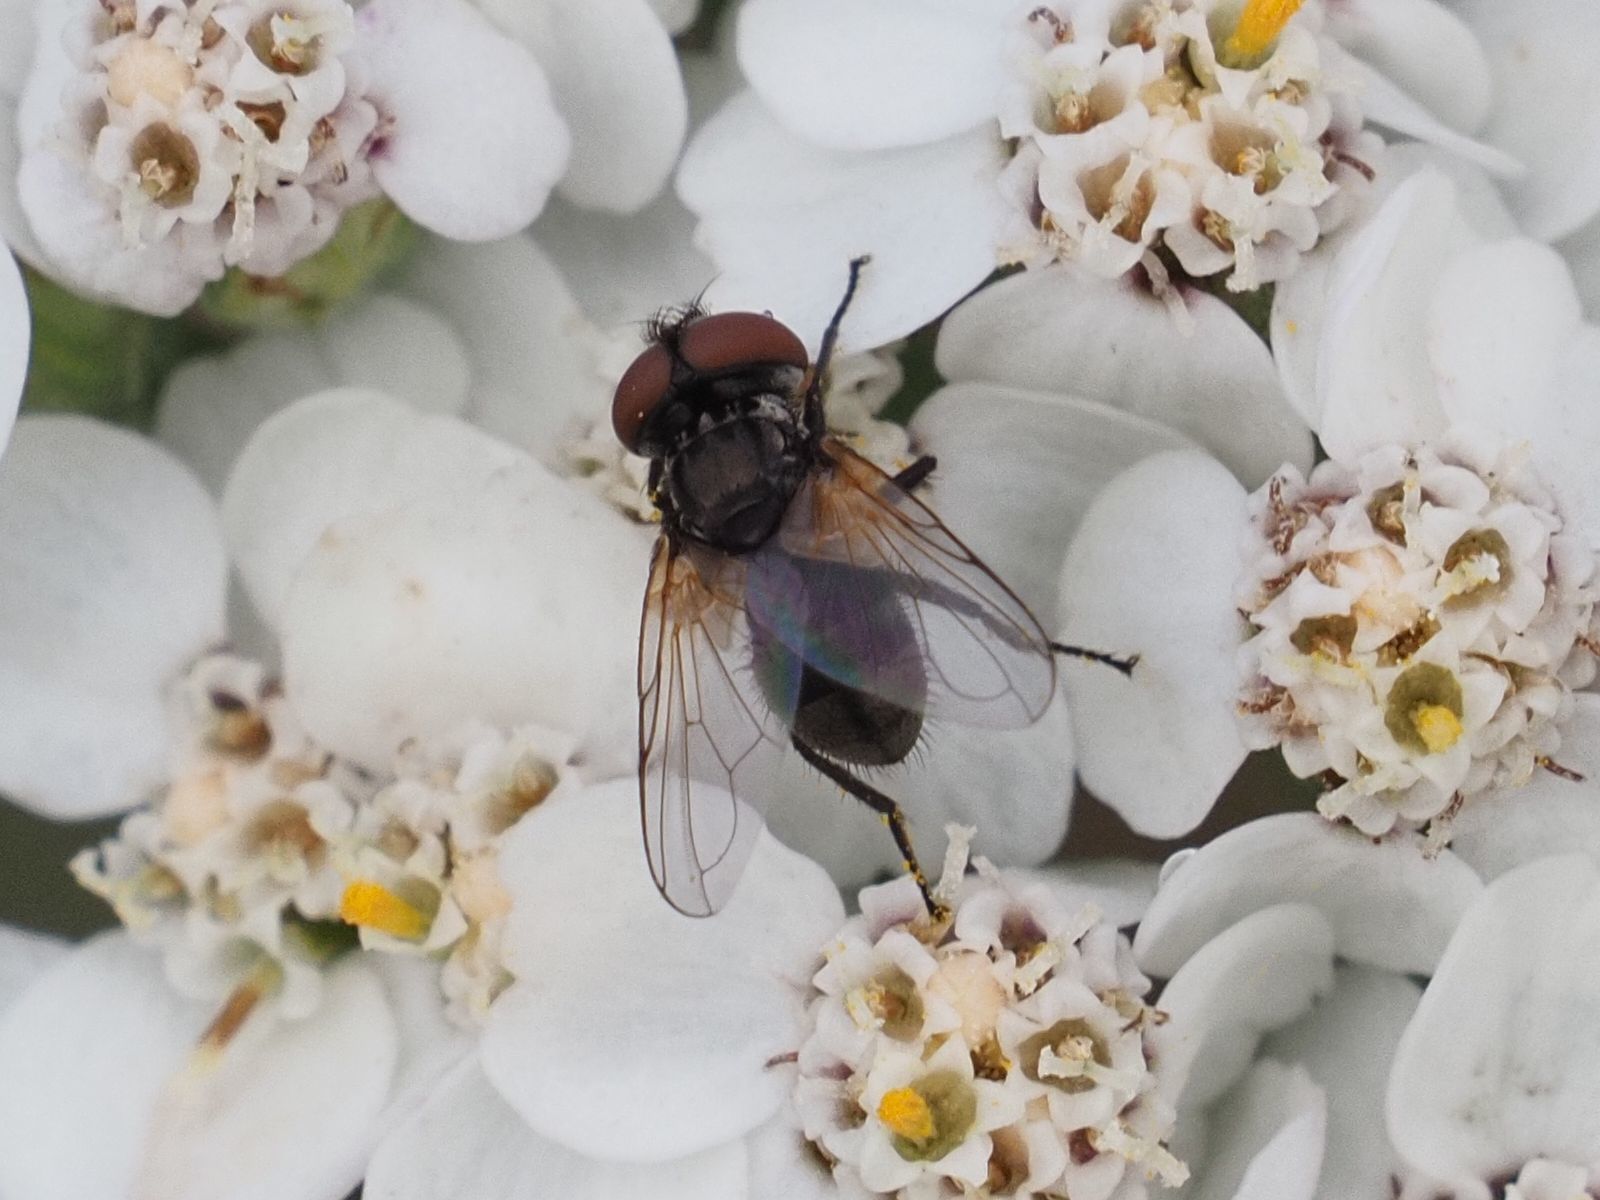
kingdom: Animalia
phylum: Arthropoda
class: Insecta
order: Diptera
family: Tachinidae
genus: Phasia
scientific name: Phasia obesa
